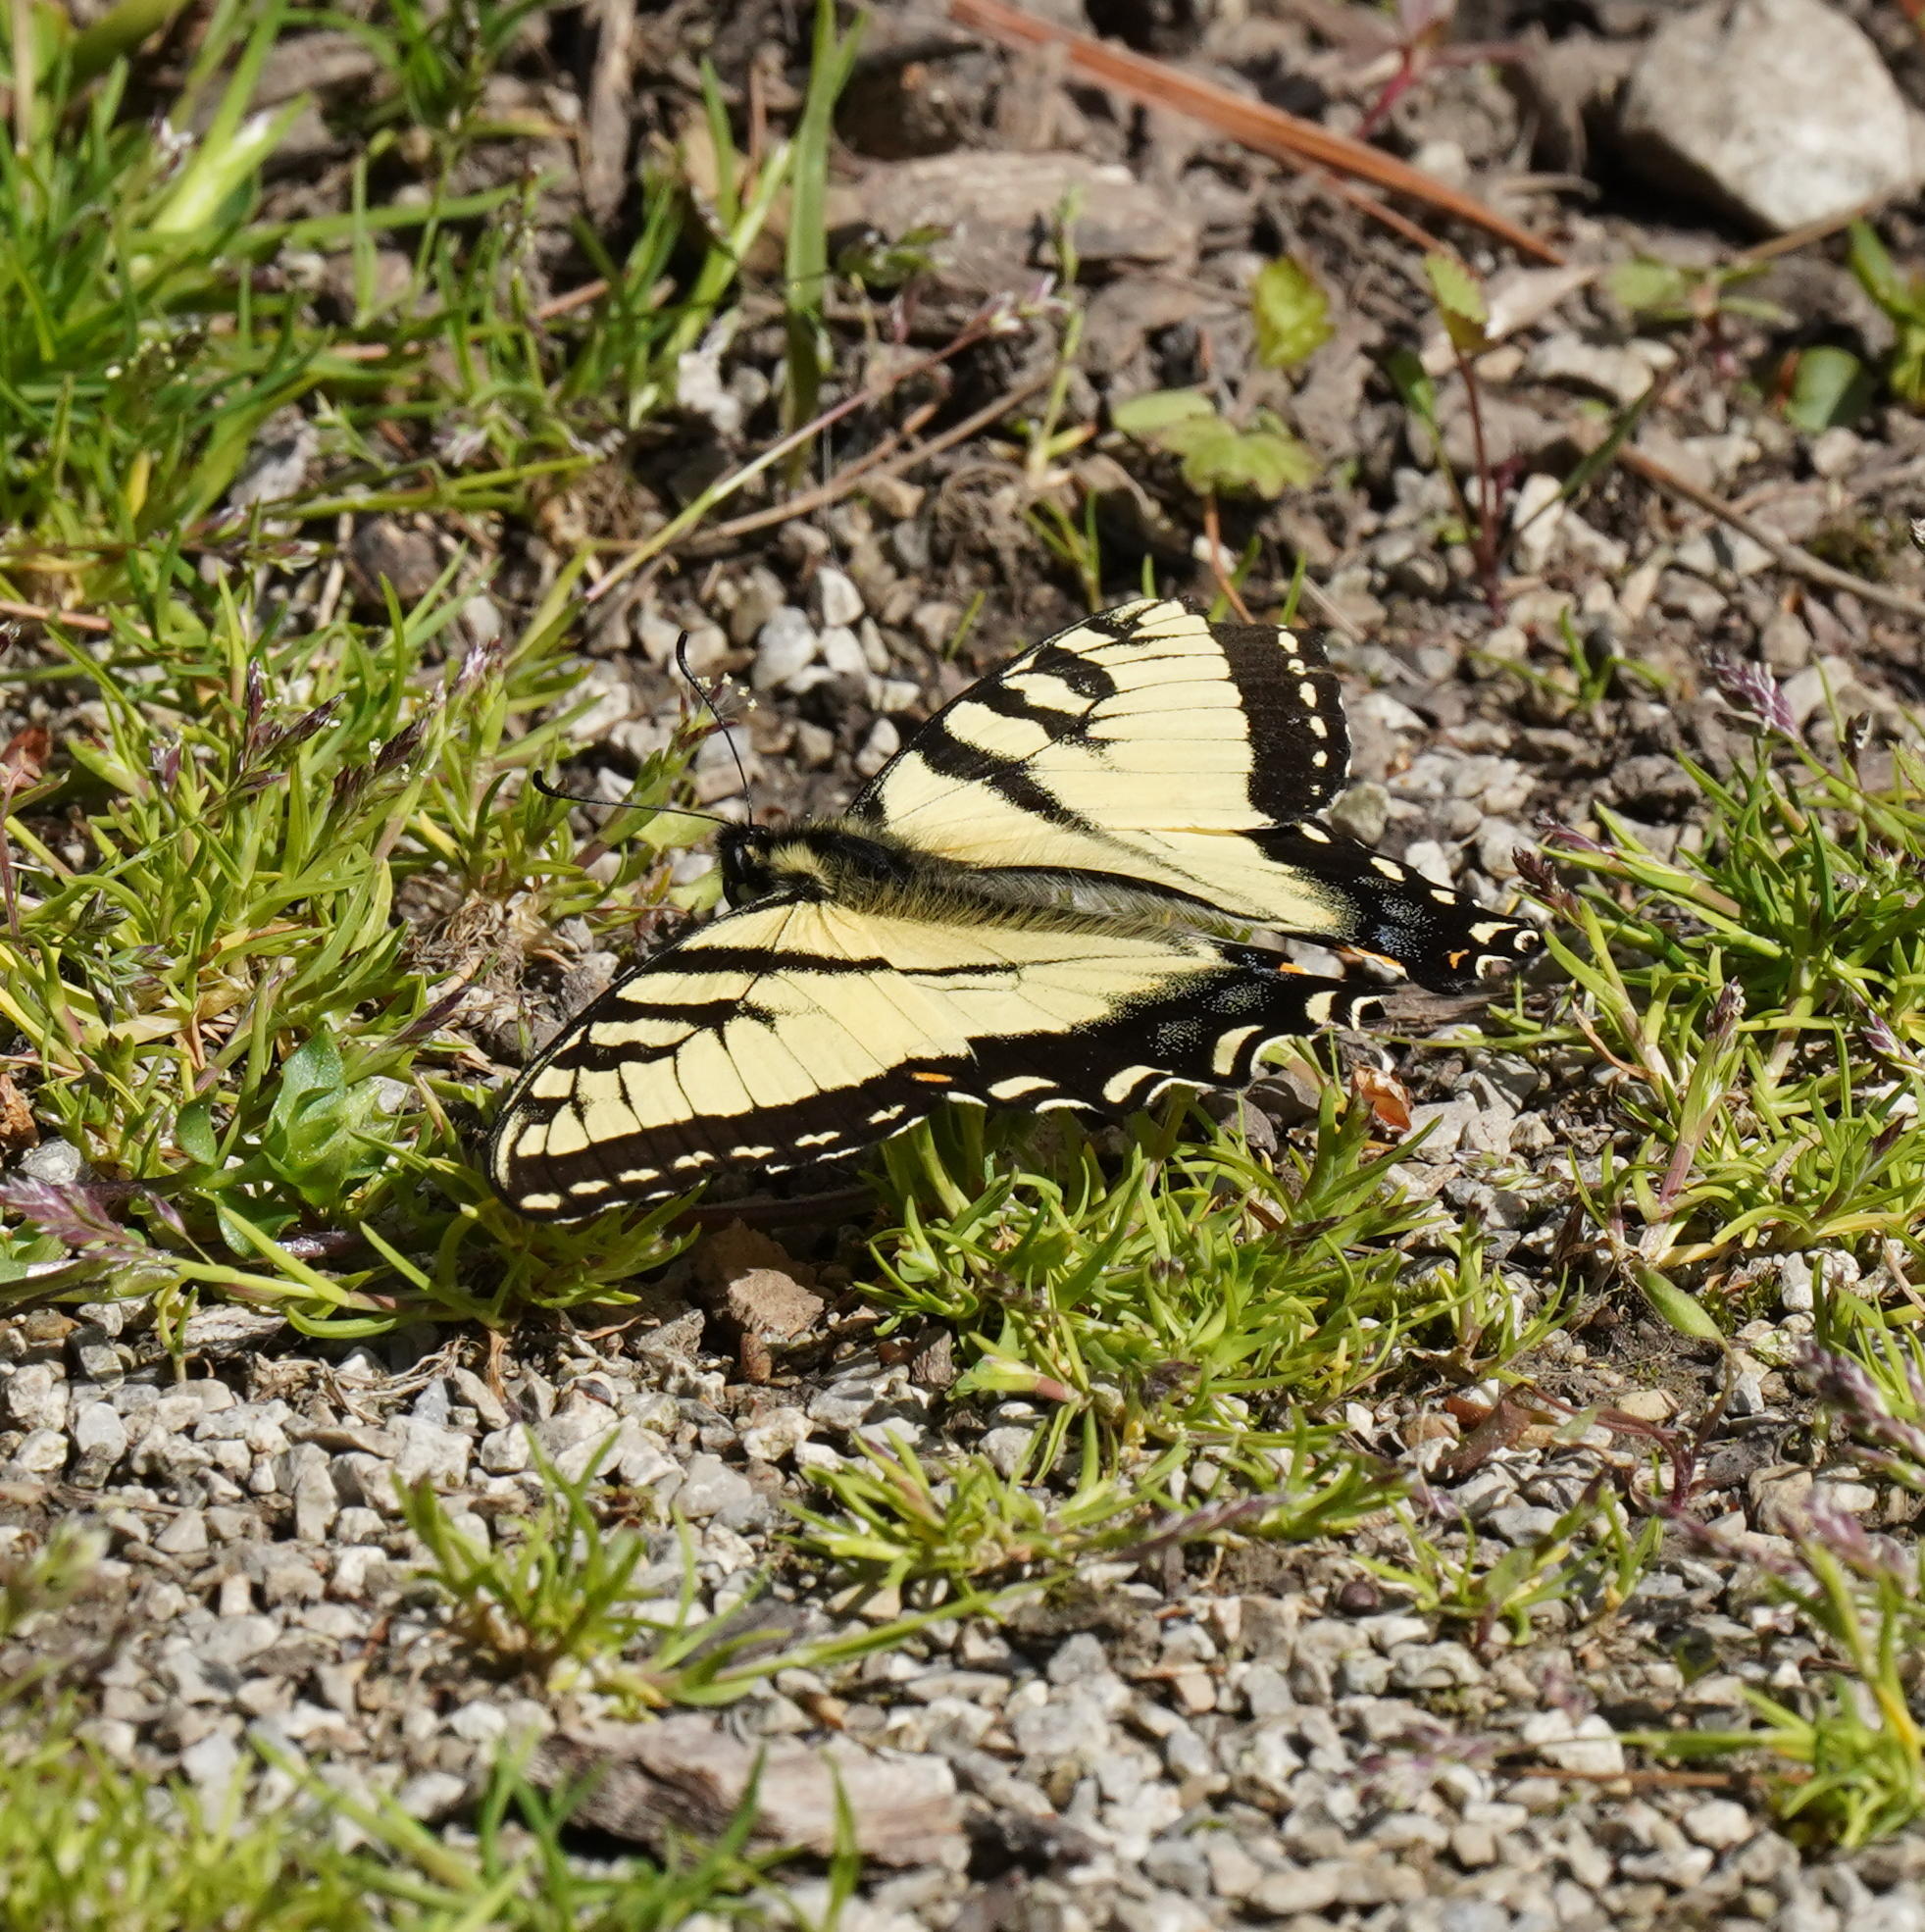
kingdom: Animalia
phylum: Arthropoda
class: Insecta
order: Lepidoptera
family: Papilionidae
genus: Papilio
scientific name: Papilio glaucus
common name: Tiger swallowtail
